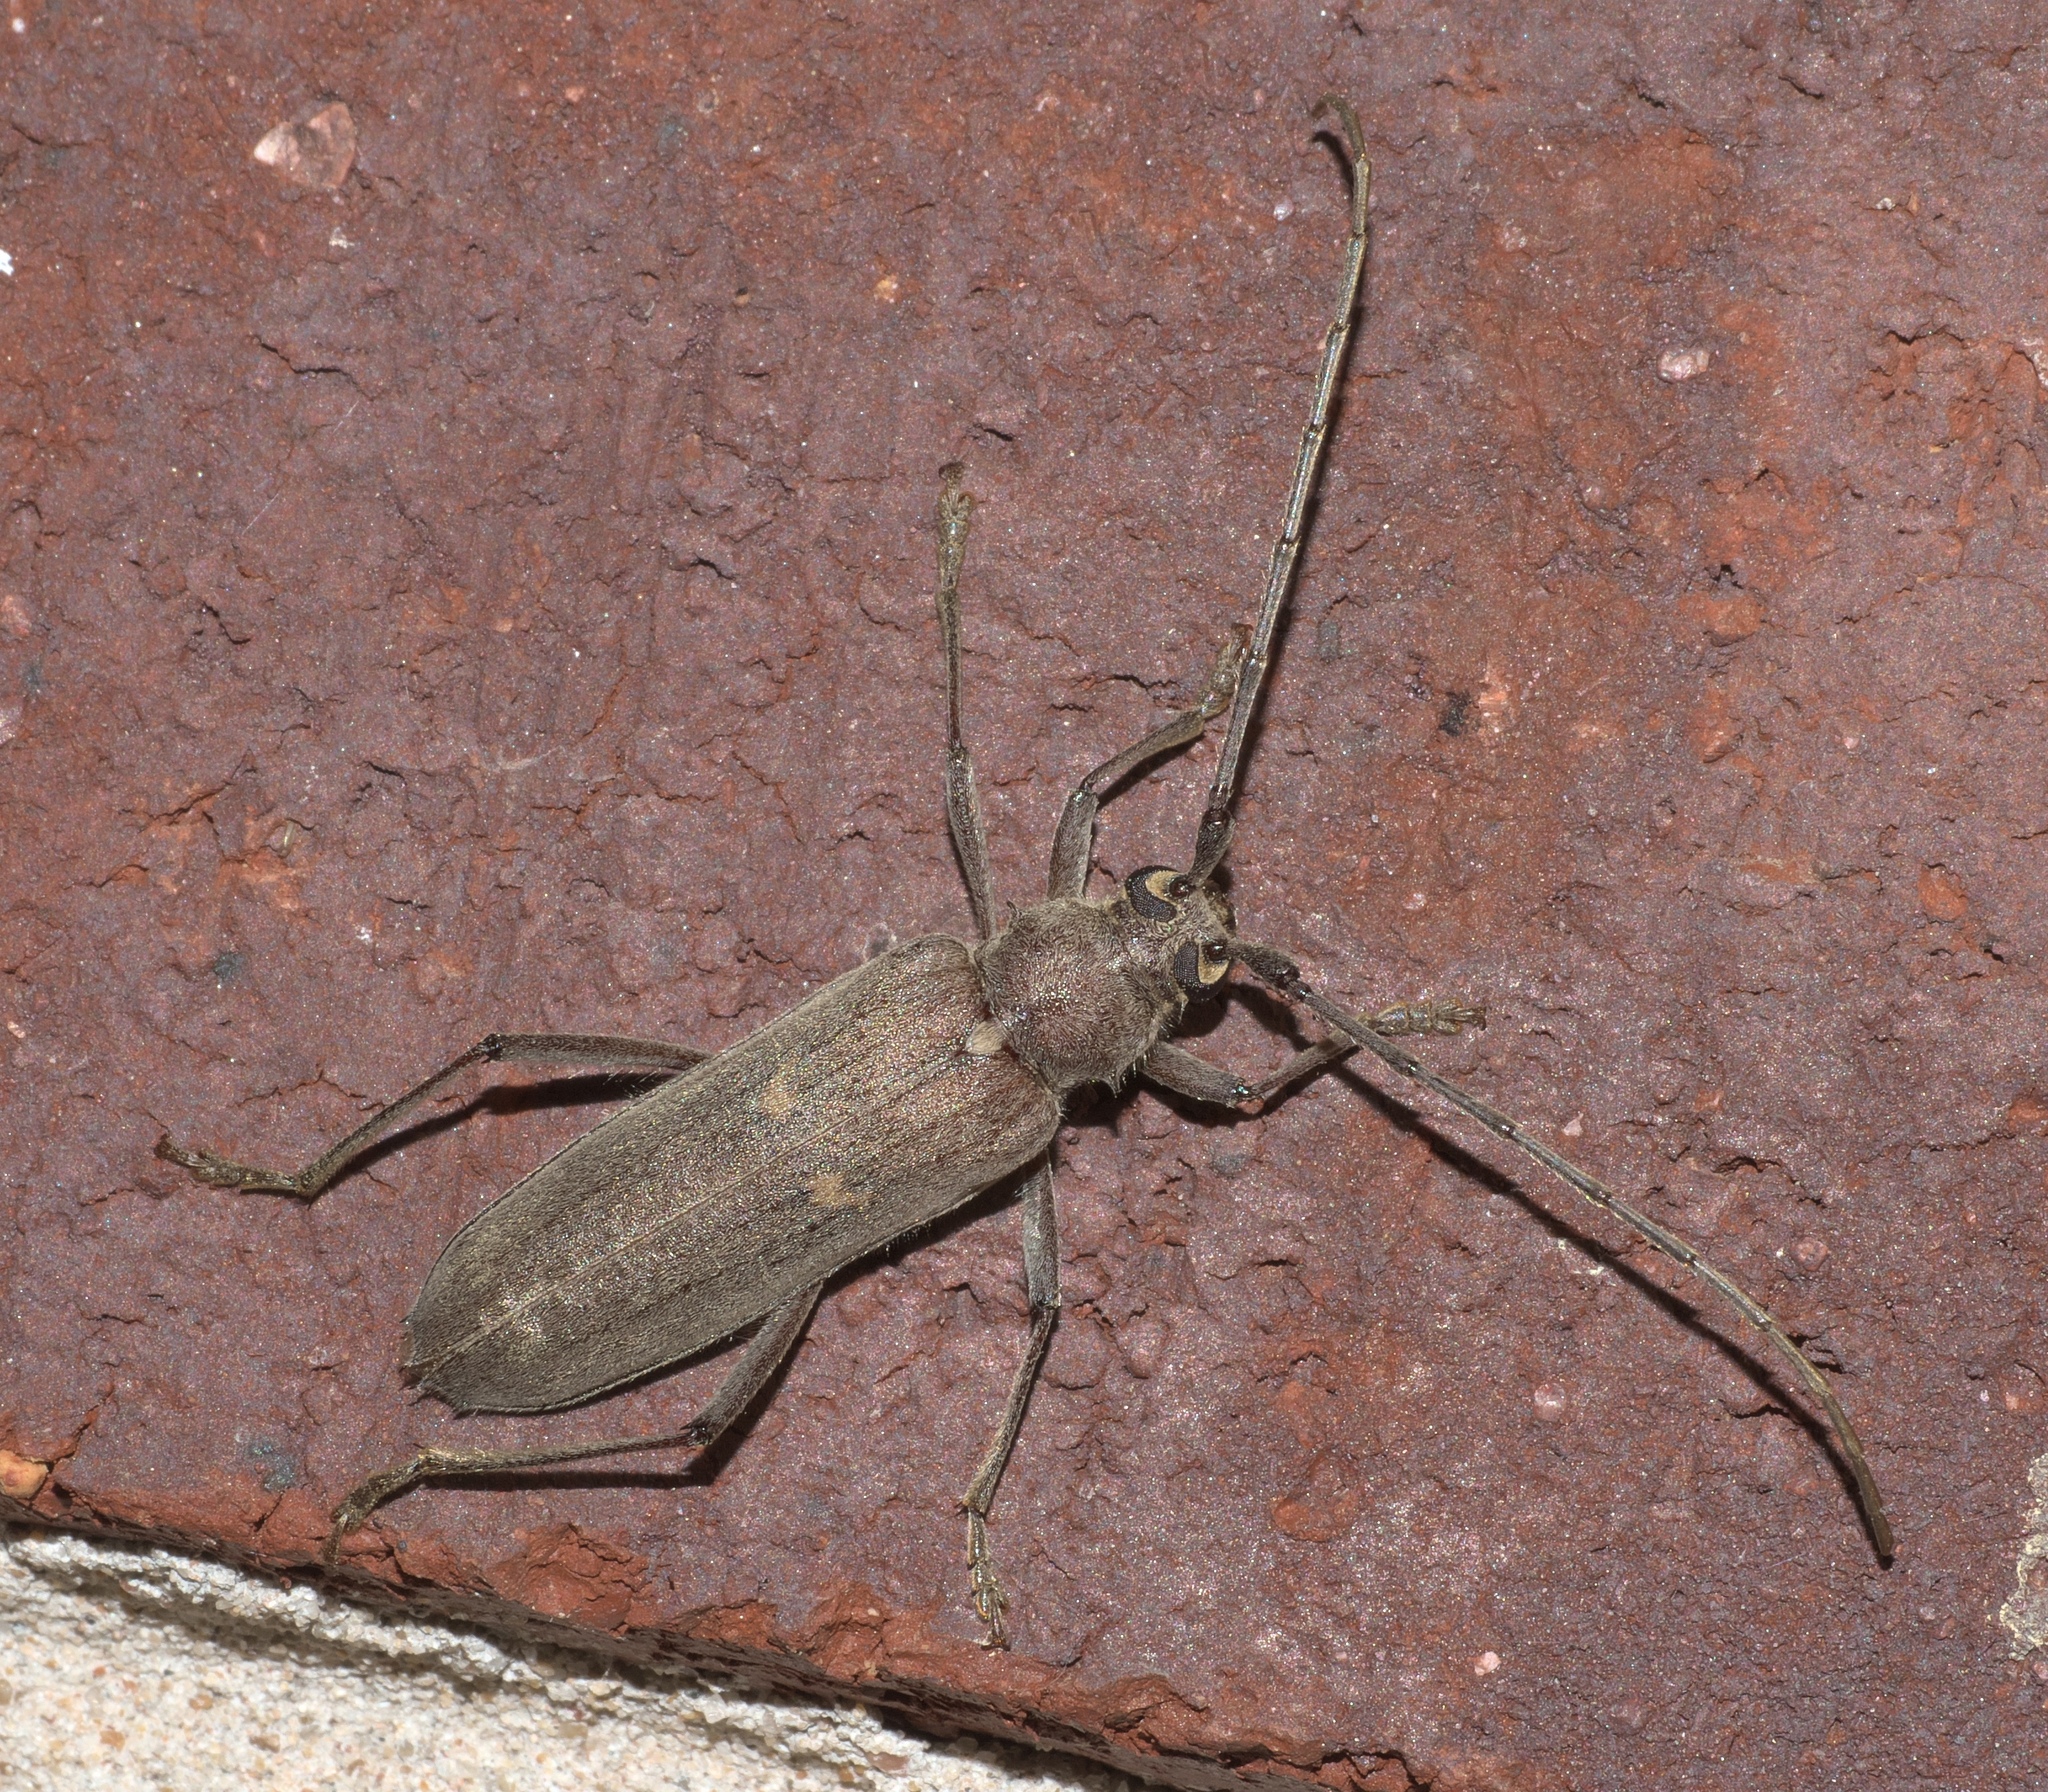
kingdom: Animalia
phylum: Arthropoda
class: Insecta
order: Coleoptera
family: Cerambycidae
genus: Knulliana
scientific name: Knulliana cincta
